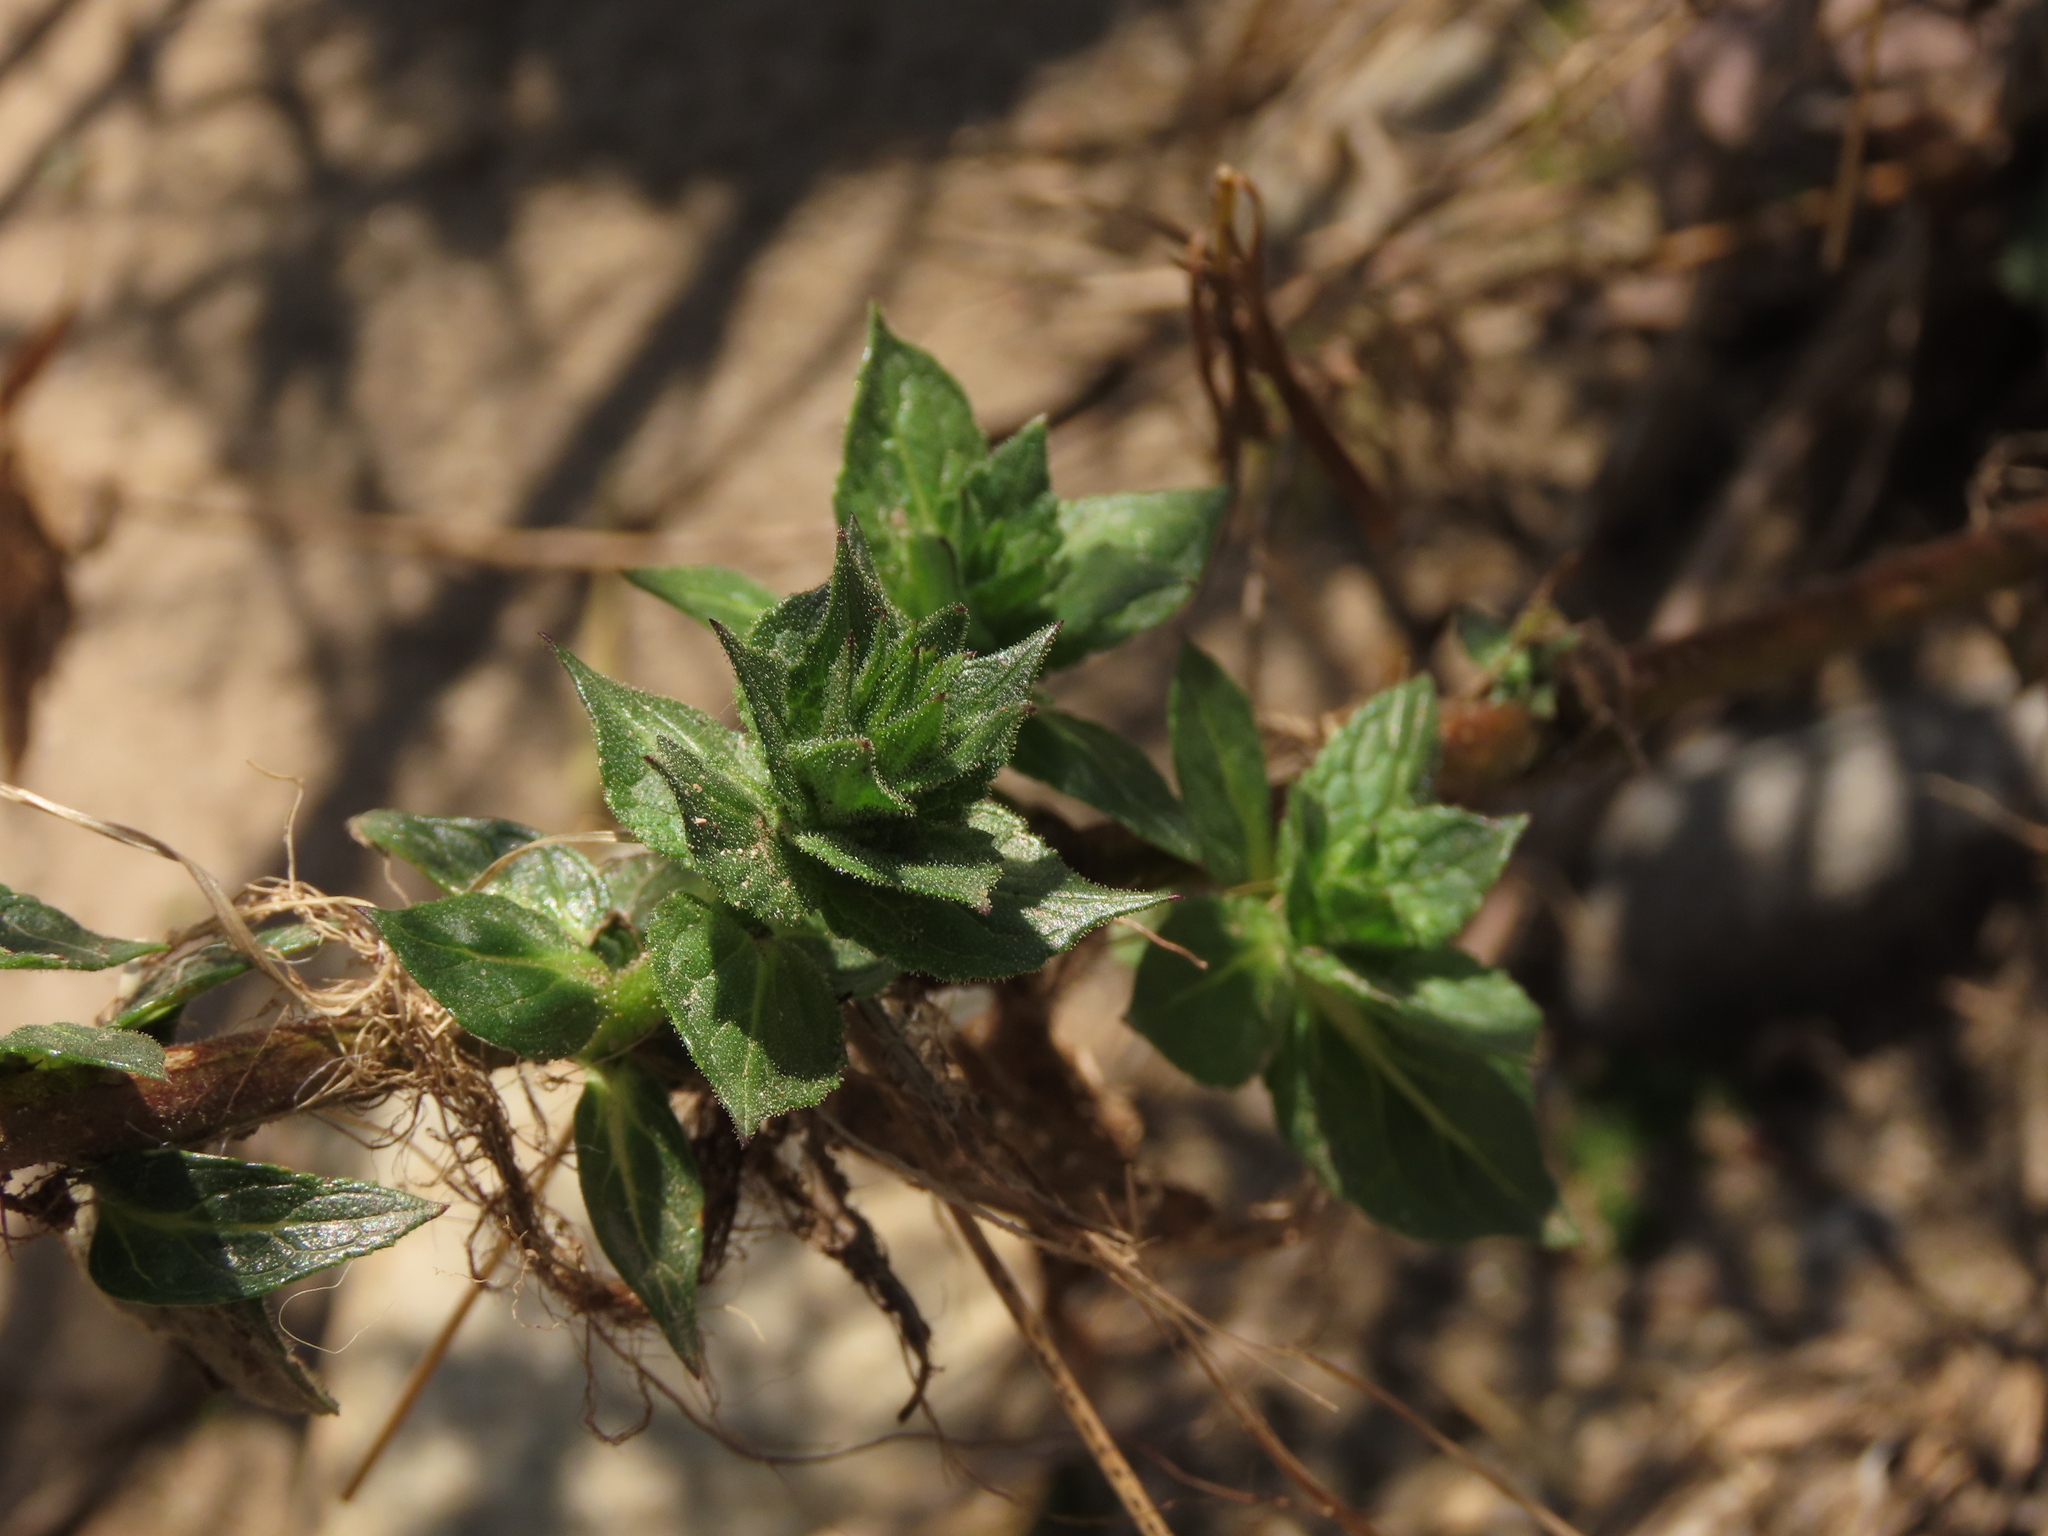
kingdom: Plantae
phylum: Tracheophyta
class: Magnoliopsida
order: Lamiales
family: Scrophulariaceae
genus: Verbascum
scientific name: Verbascum virgatum
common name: Twiggy mullein
